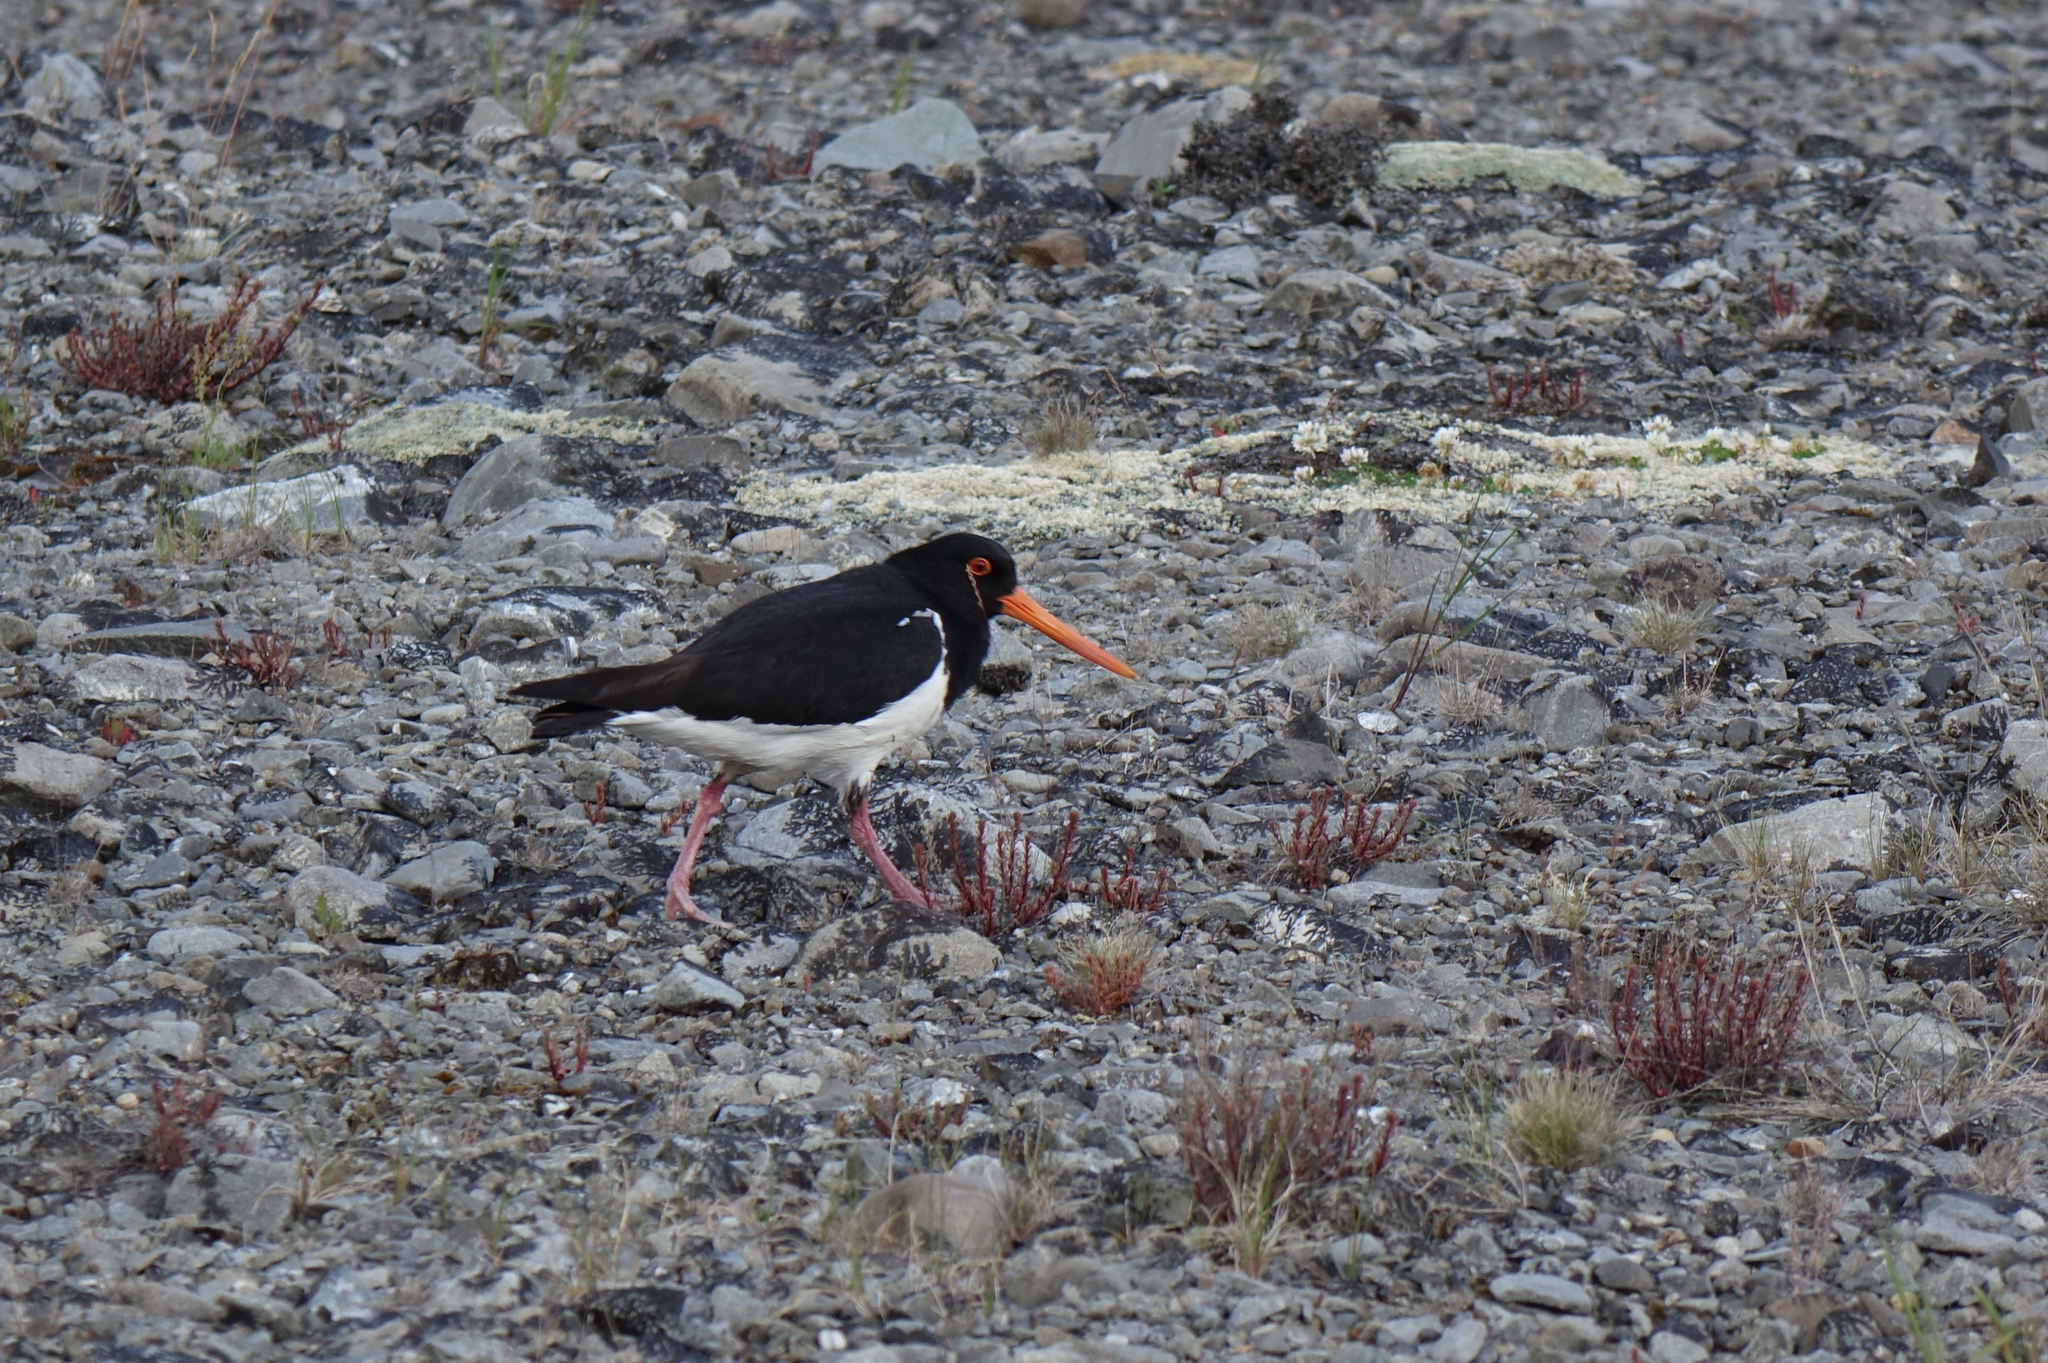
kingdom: Animalia
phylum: Chordata
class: Aves
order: Charadriiformes
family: Haematopodidae
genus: Haematopus
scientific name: Haematopus finschi
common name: South island oystercatcher
